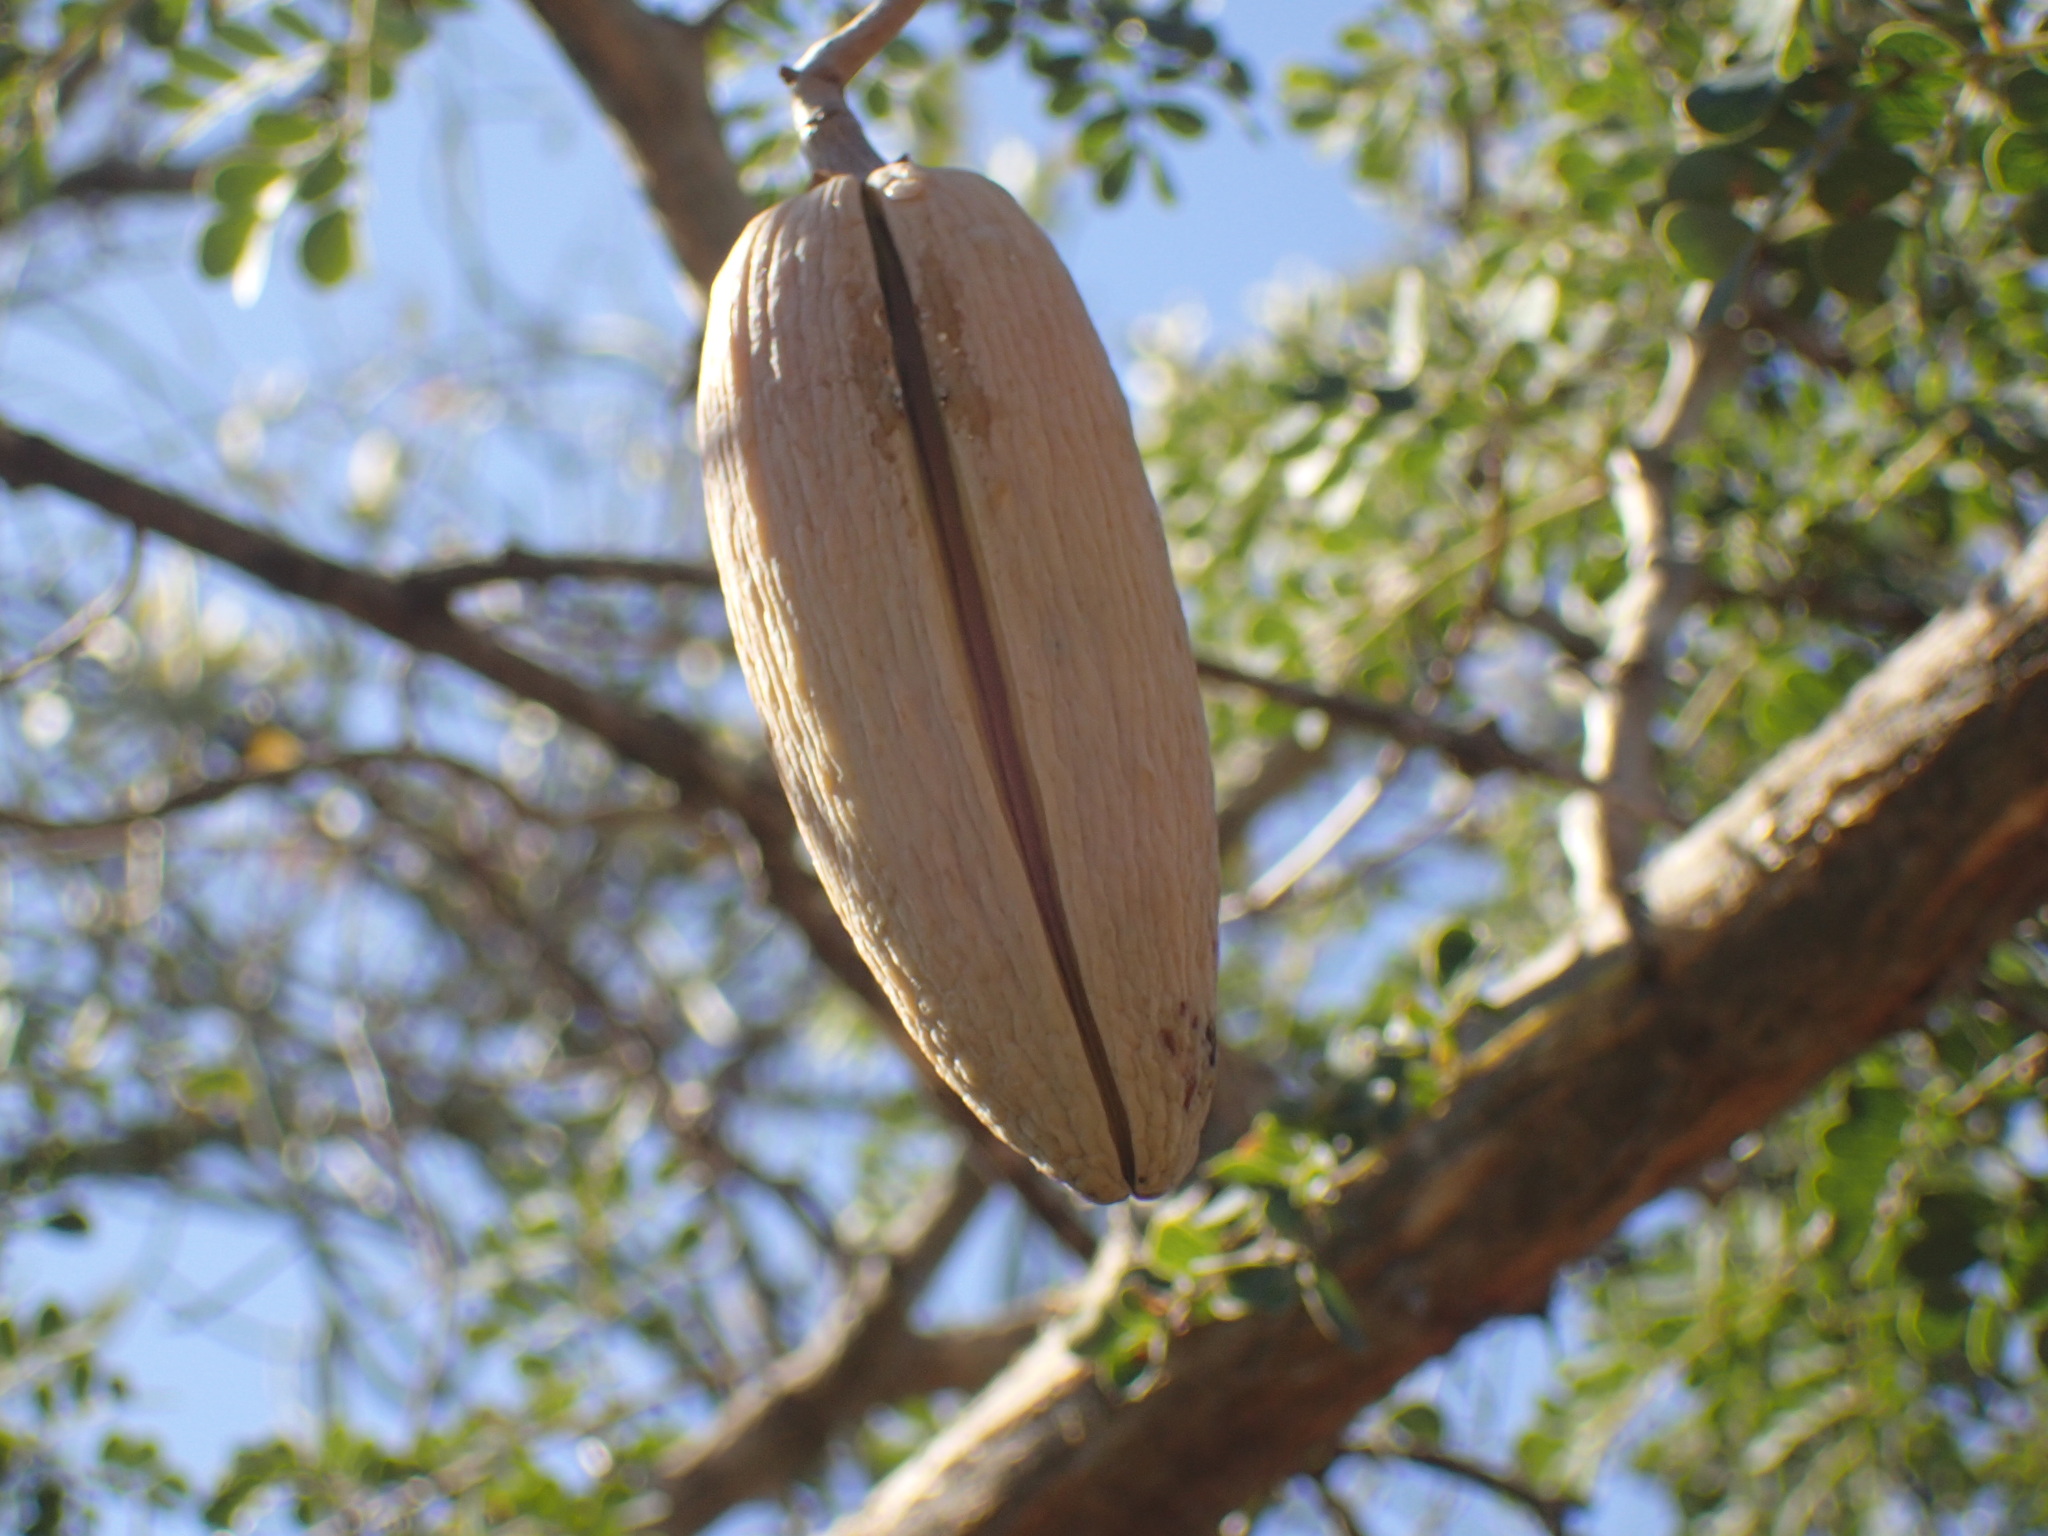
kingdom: Plantae
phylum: Tracheophyta
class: Magnoliopsida
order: Gentianales
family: Apocynaceae
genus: Cynanchum
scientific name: Cynanchum viminale
